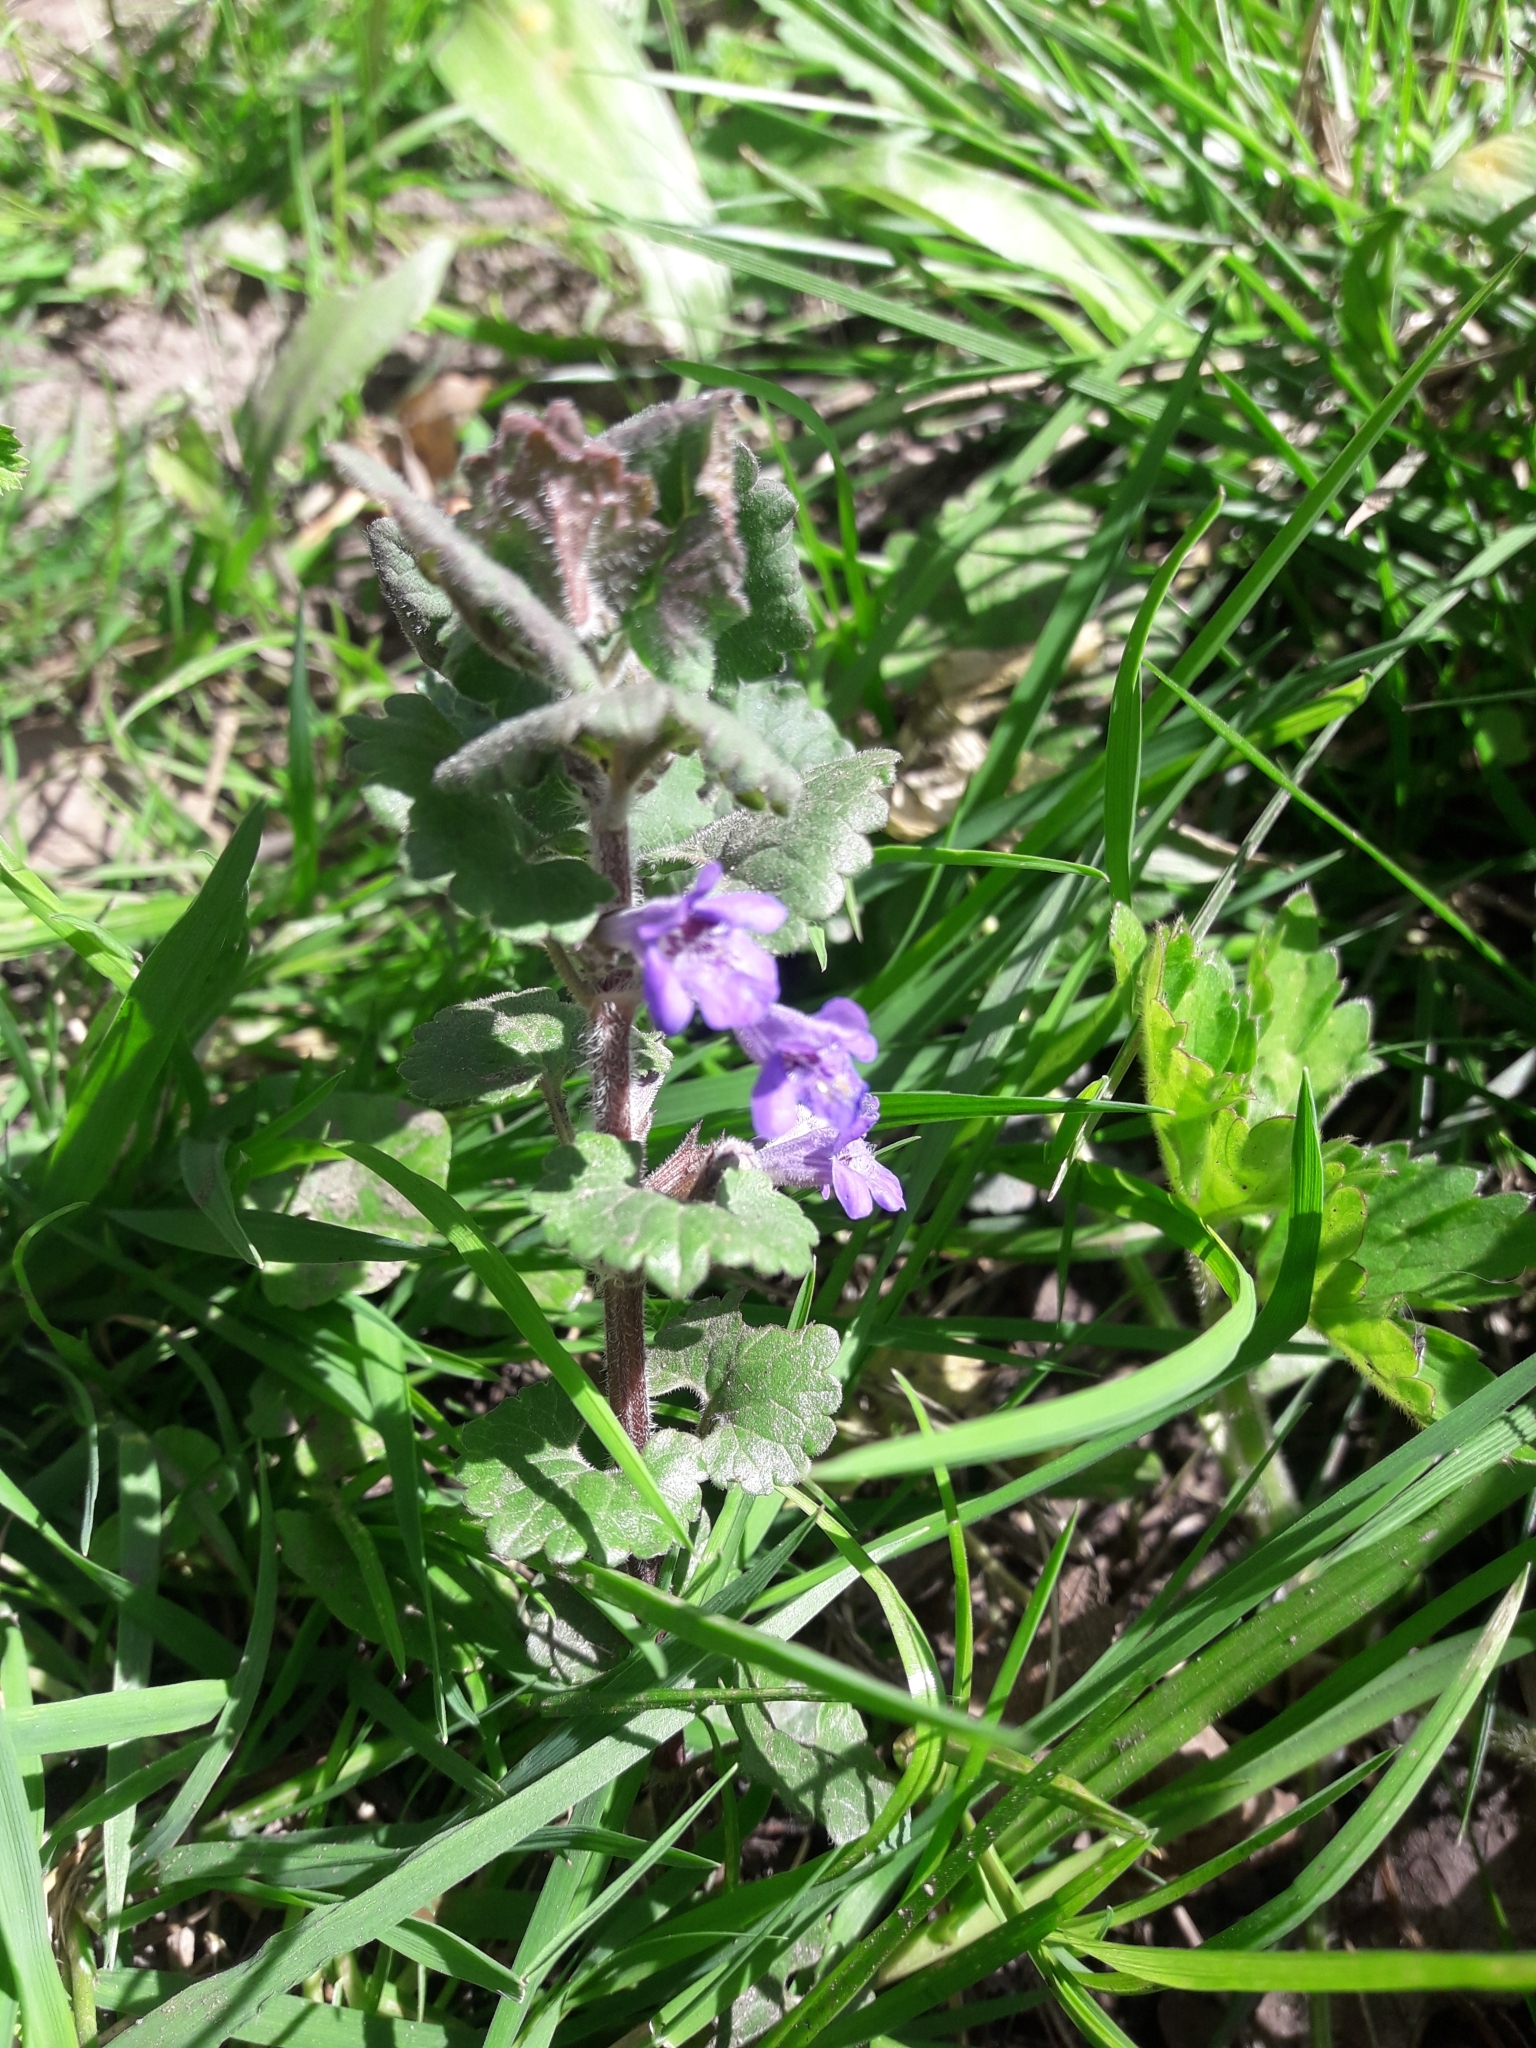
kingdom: Plantae
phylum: Tracheophyta
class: Magnoliopsida
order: Lamiales
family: Lamiaceae
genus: Glechoma
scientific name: Glechoma hederacea
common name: Ground ivy
